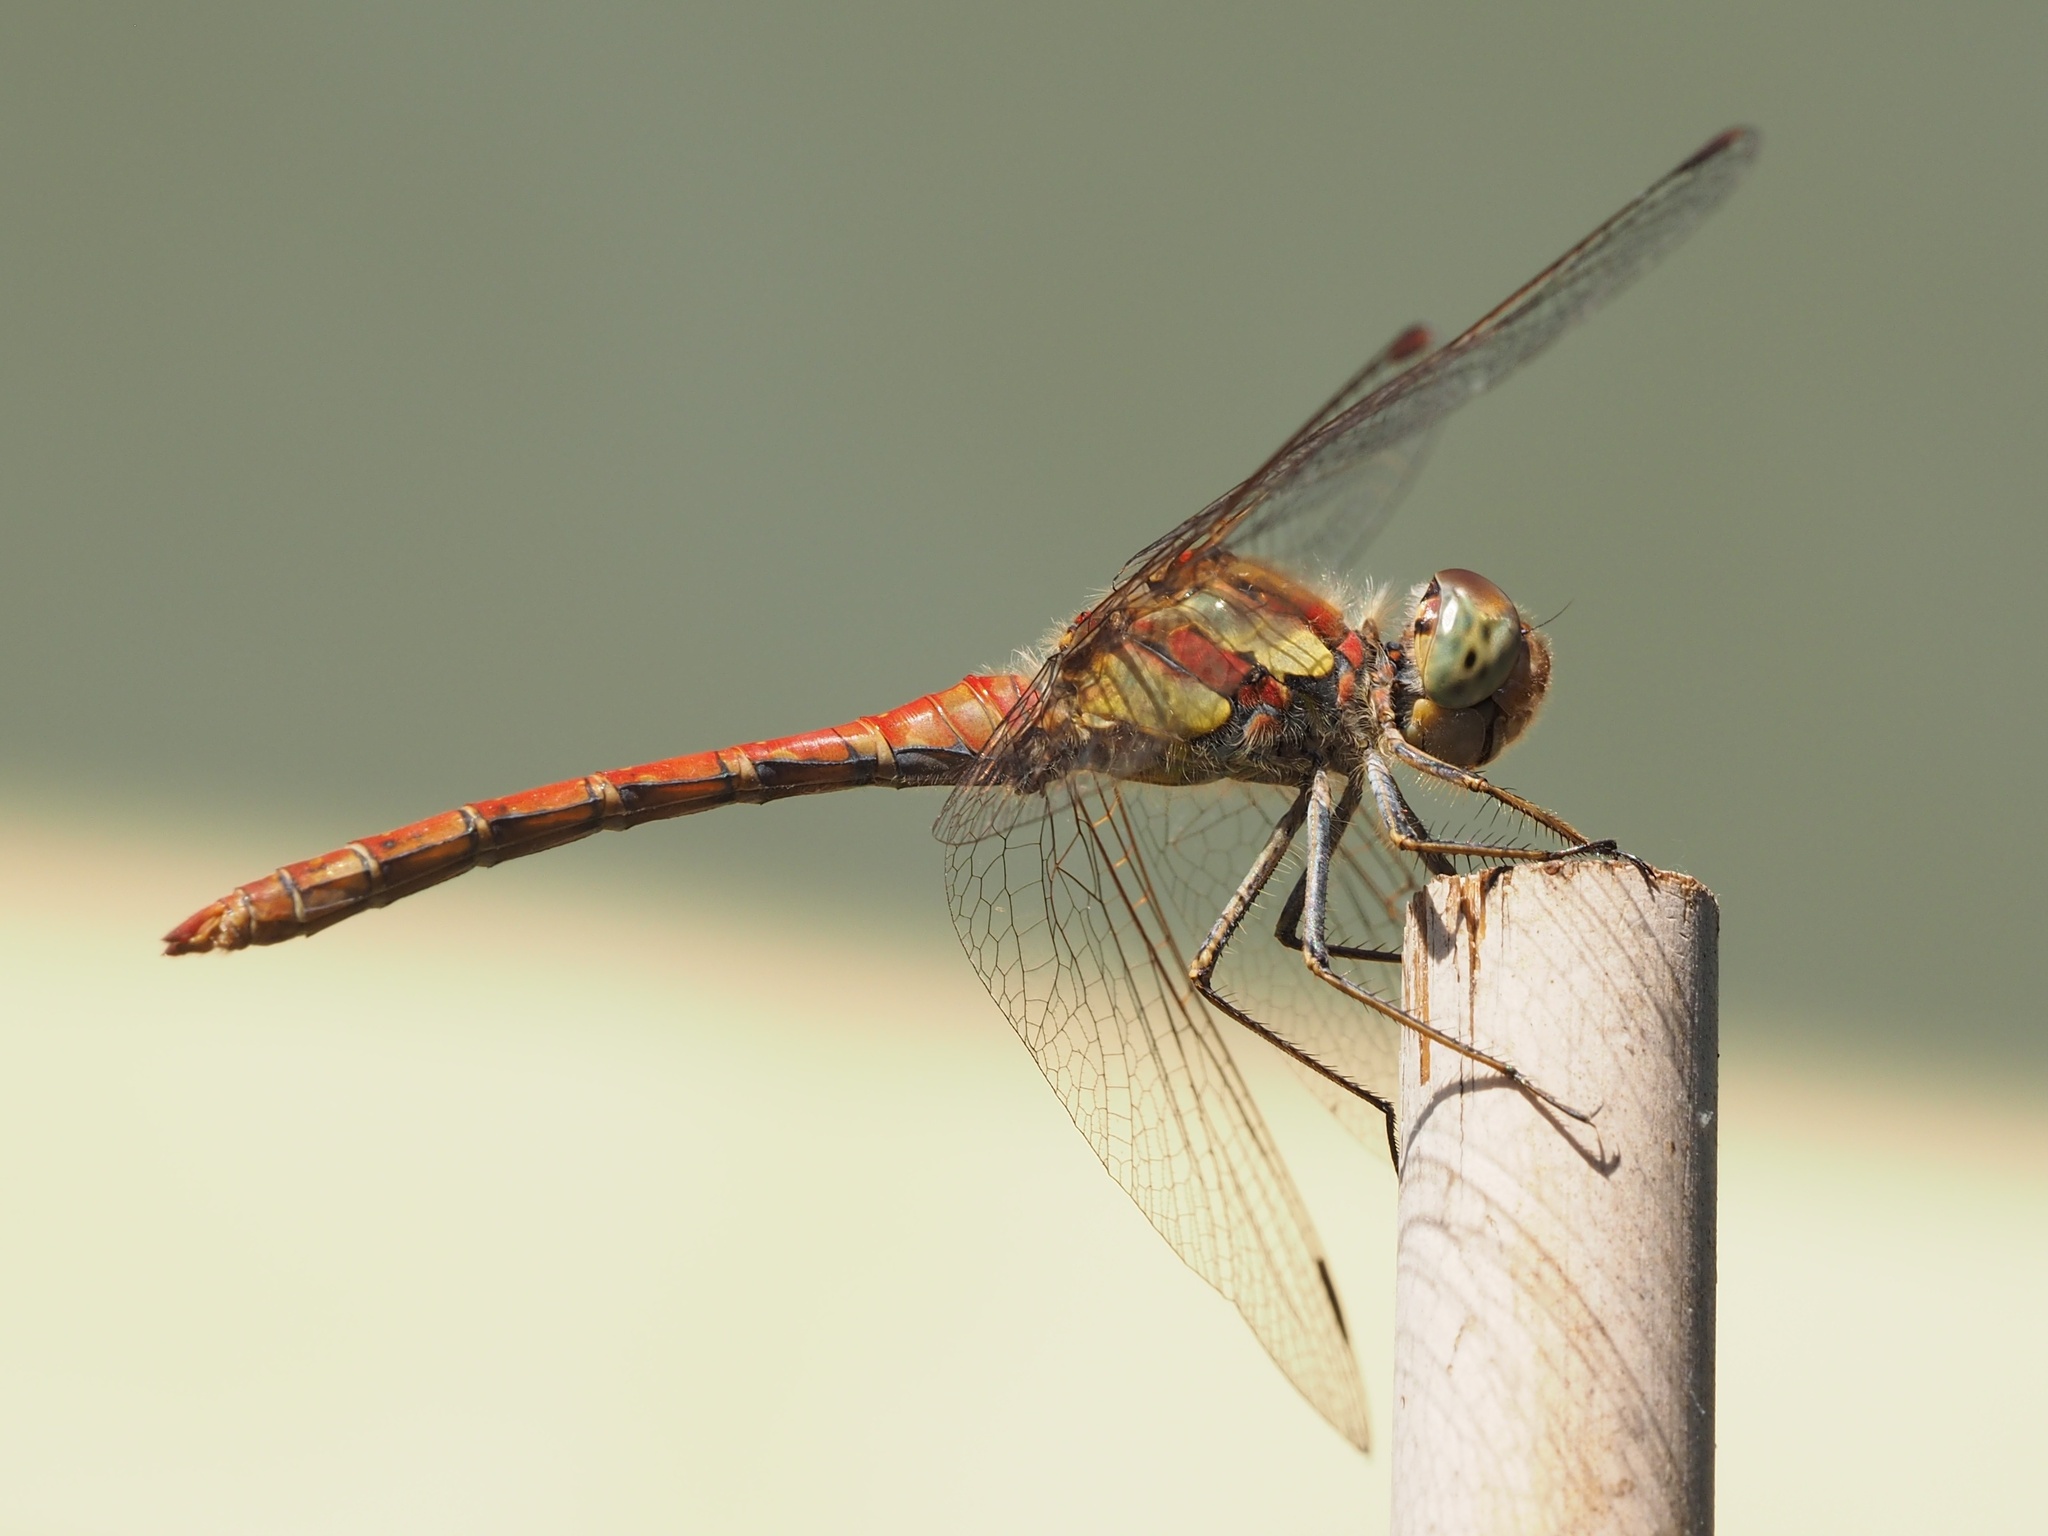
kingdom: Animalia
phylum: Arthropoda
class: Insecta
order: Odonata
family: Libellulidae
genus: Sympetrum
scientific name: Sympetrum striolatum
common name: Common darter
